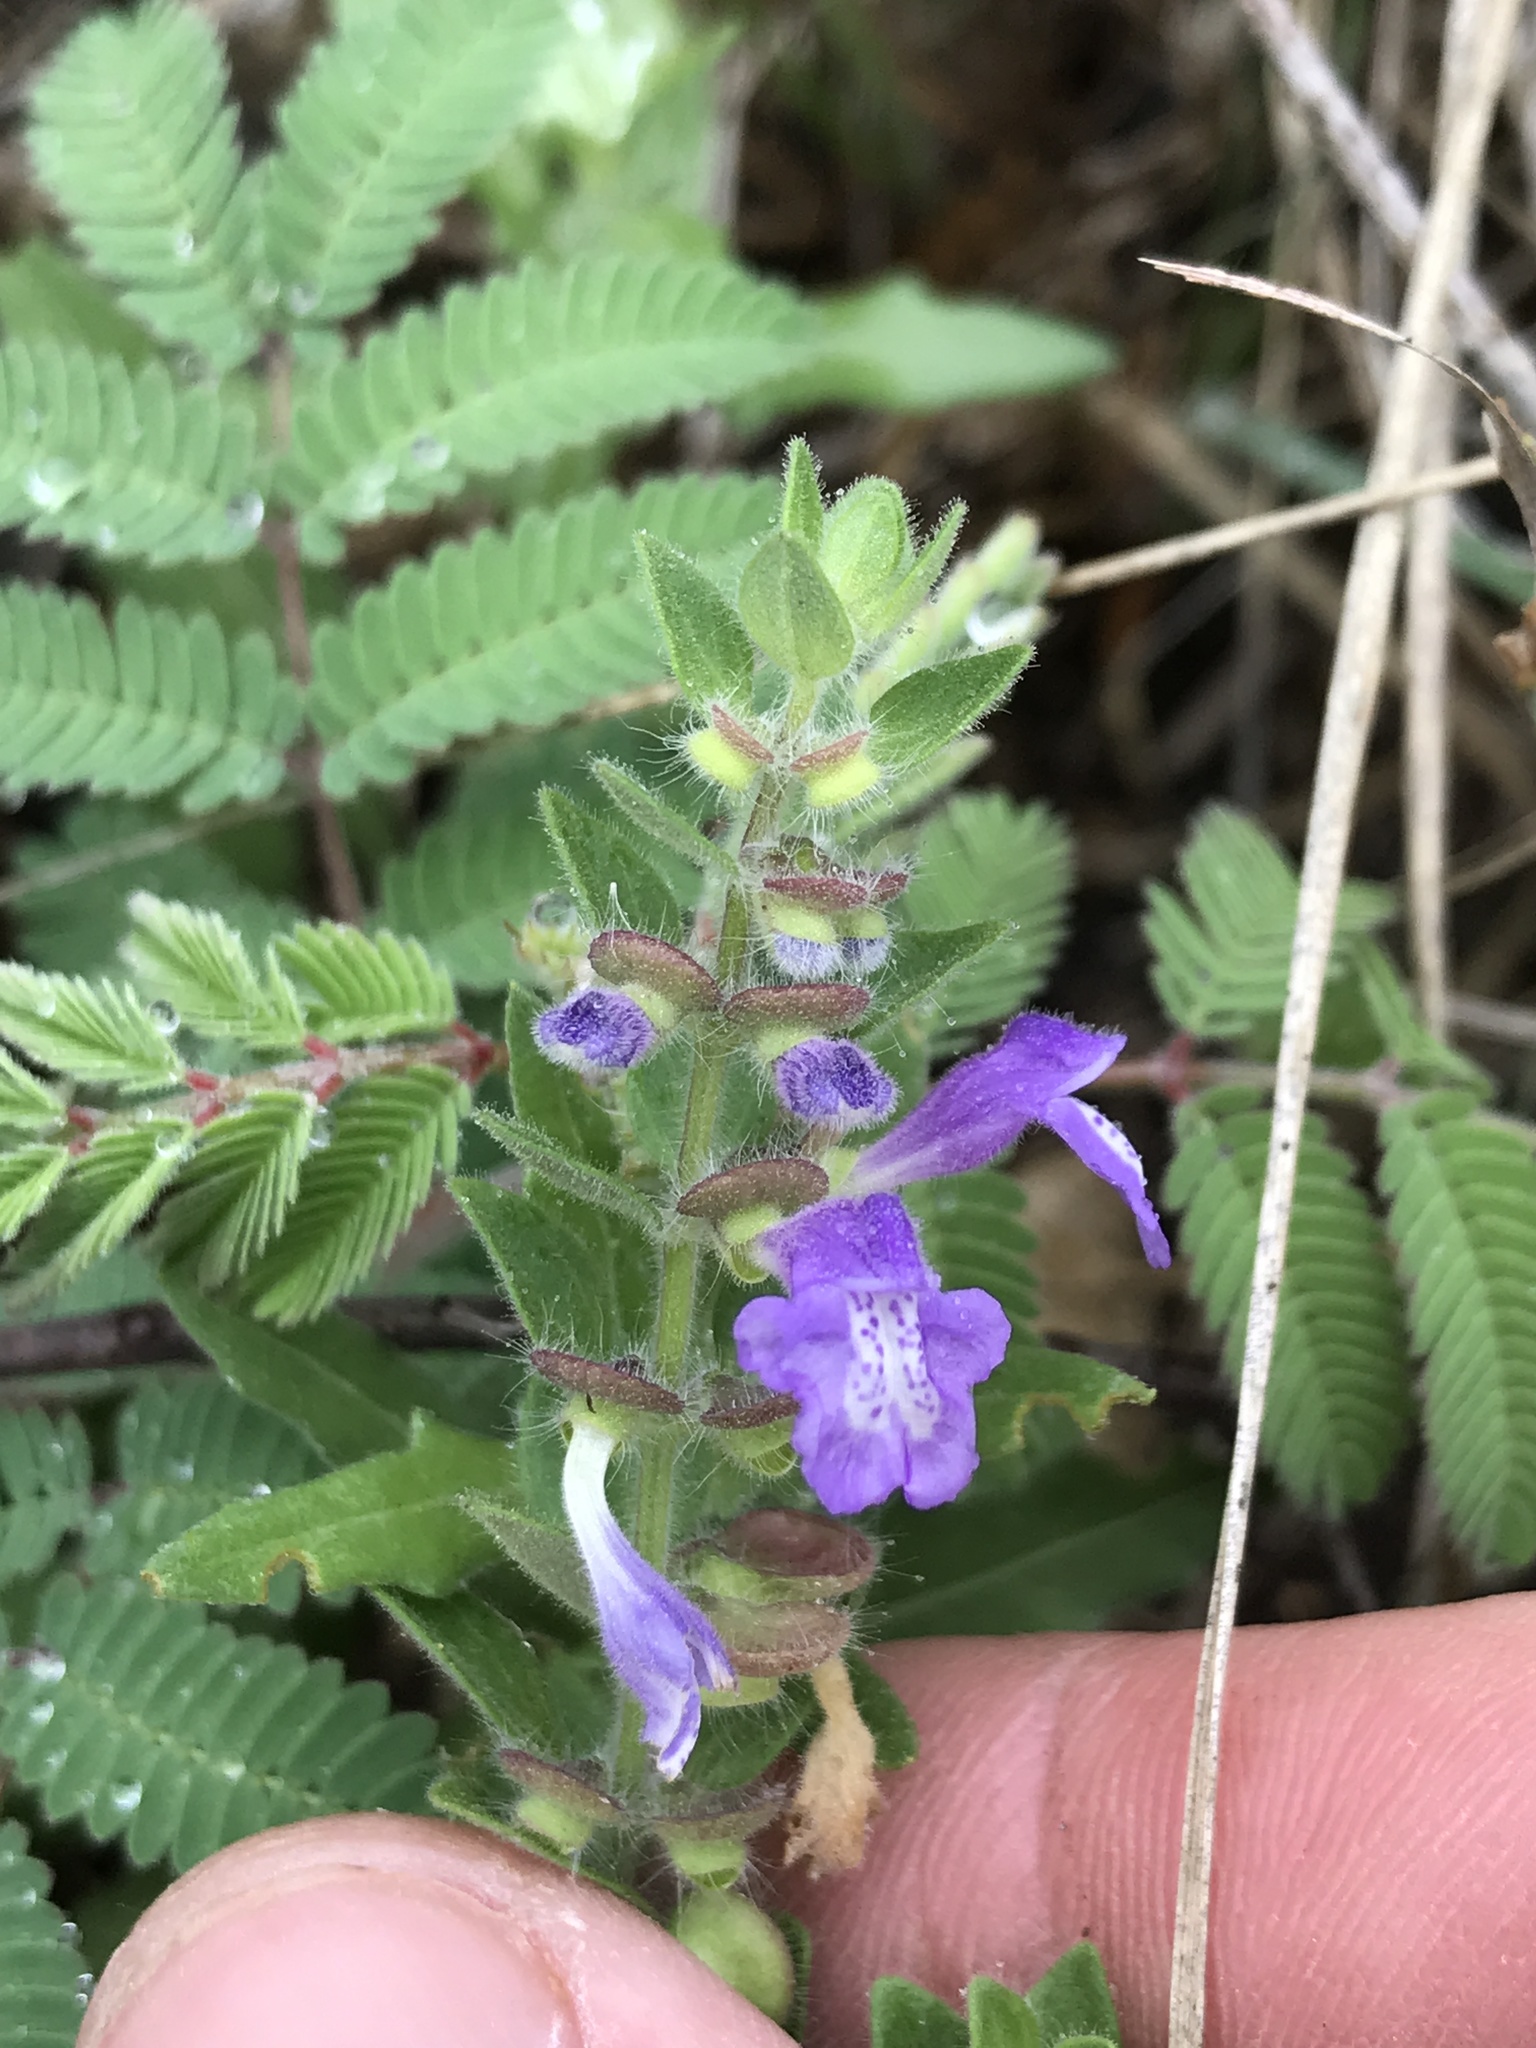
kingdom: Plantae
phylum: Tracheophyta
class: Magnoliopsida
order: Lamiales
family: Lamiaceae
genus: Scutellaria
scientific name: Scutellaria drummondii
